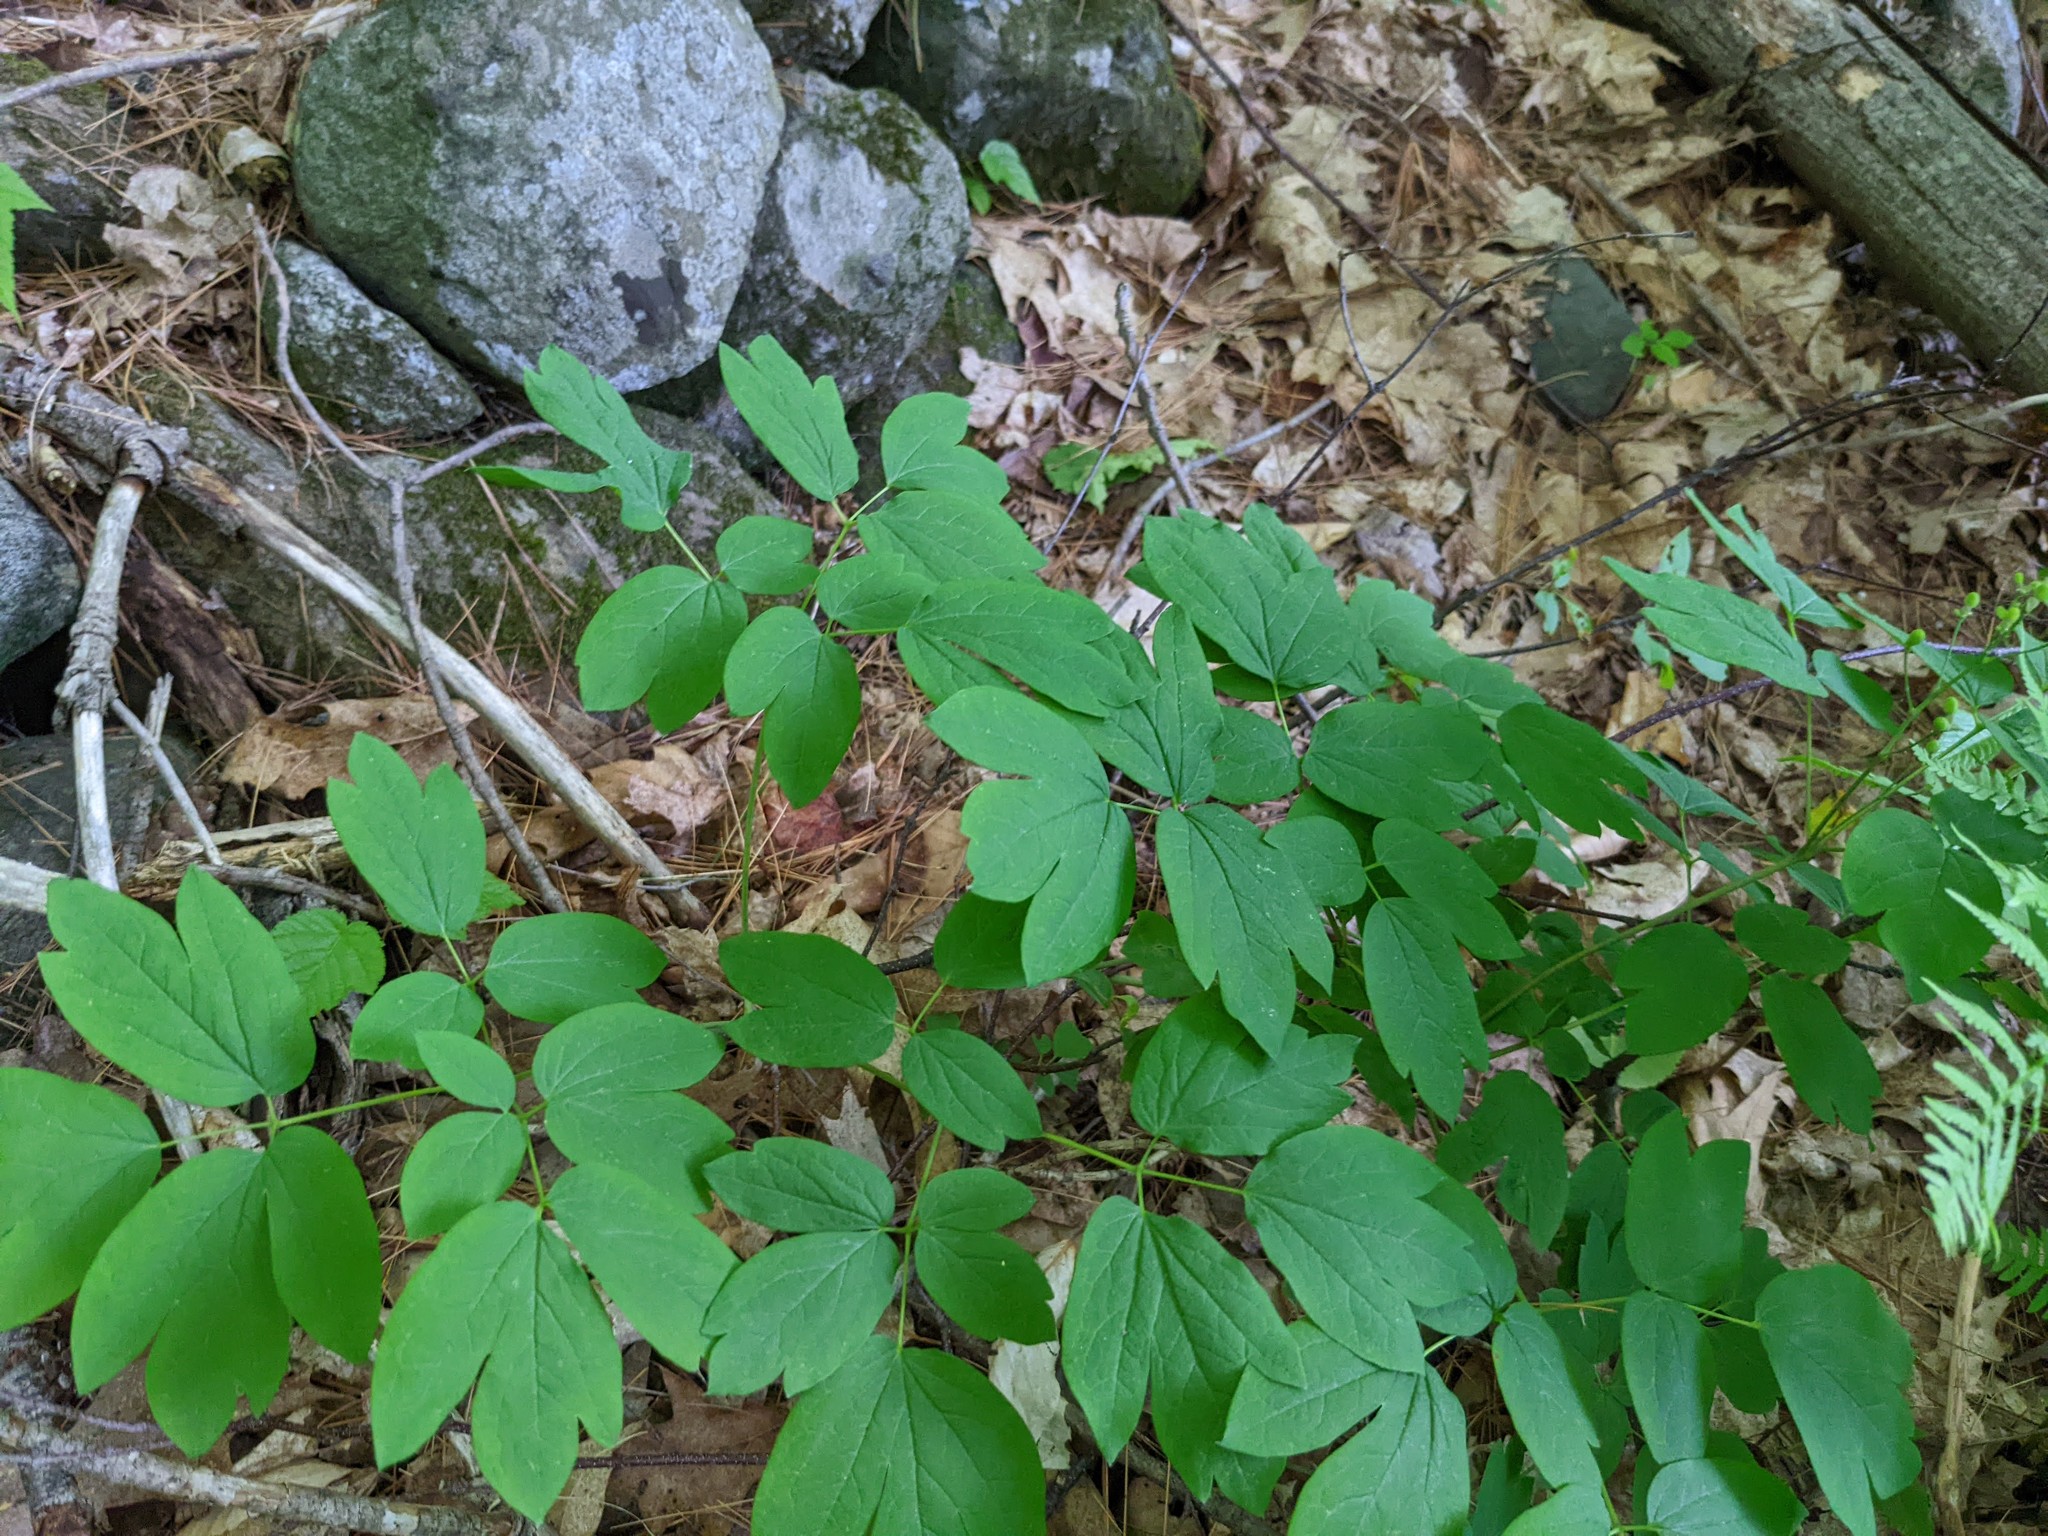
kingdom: Plantae
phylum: Tracheophyta
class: Magnoliopsida
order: Ranunculales
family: Berberidaceae
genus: Caulophyllum
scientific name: Caulophyllum thalictroides
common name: Blue cohosh
